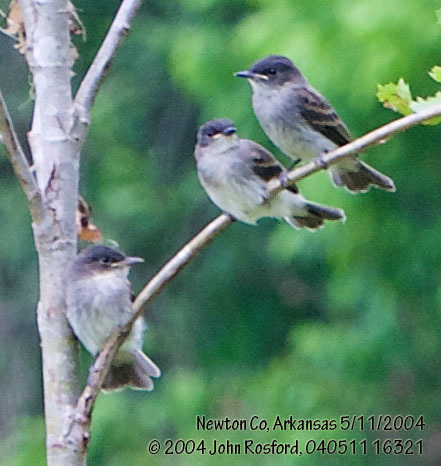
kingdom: Animalia
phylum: Chordata
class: Aves
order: Passeriformes
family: Tyrannidae
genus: Sayornis
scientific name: Sayornis phoebe
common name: Eastern phoebe
